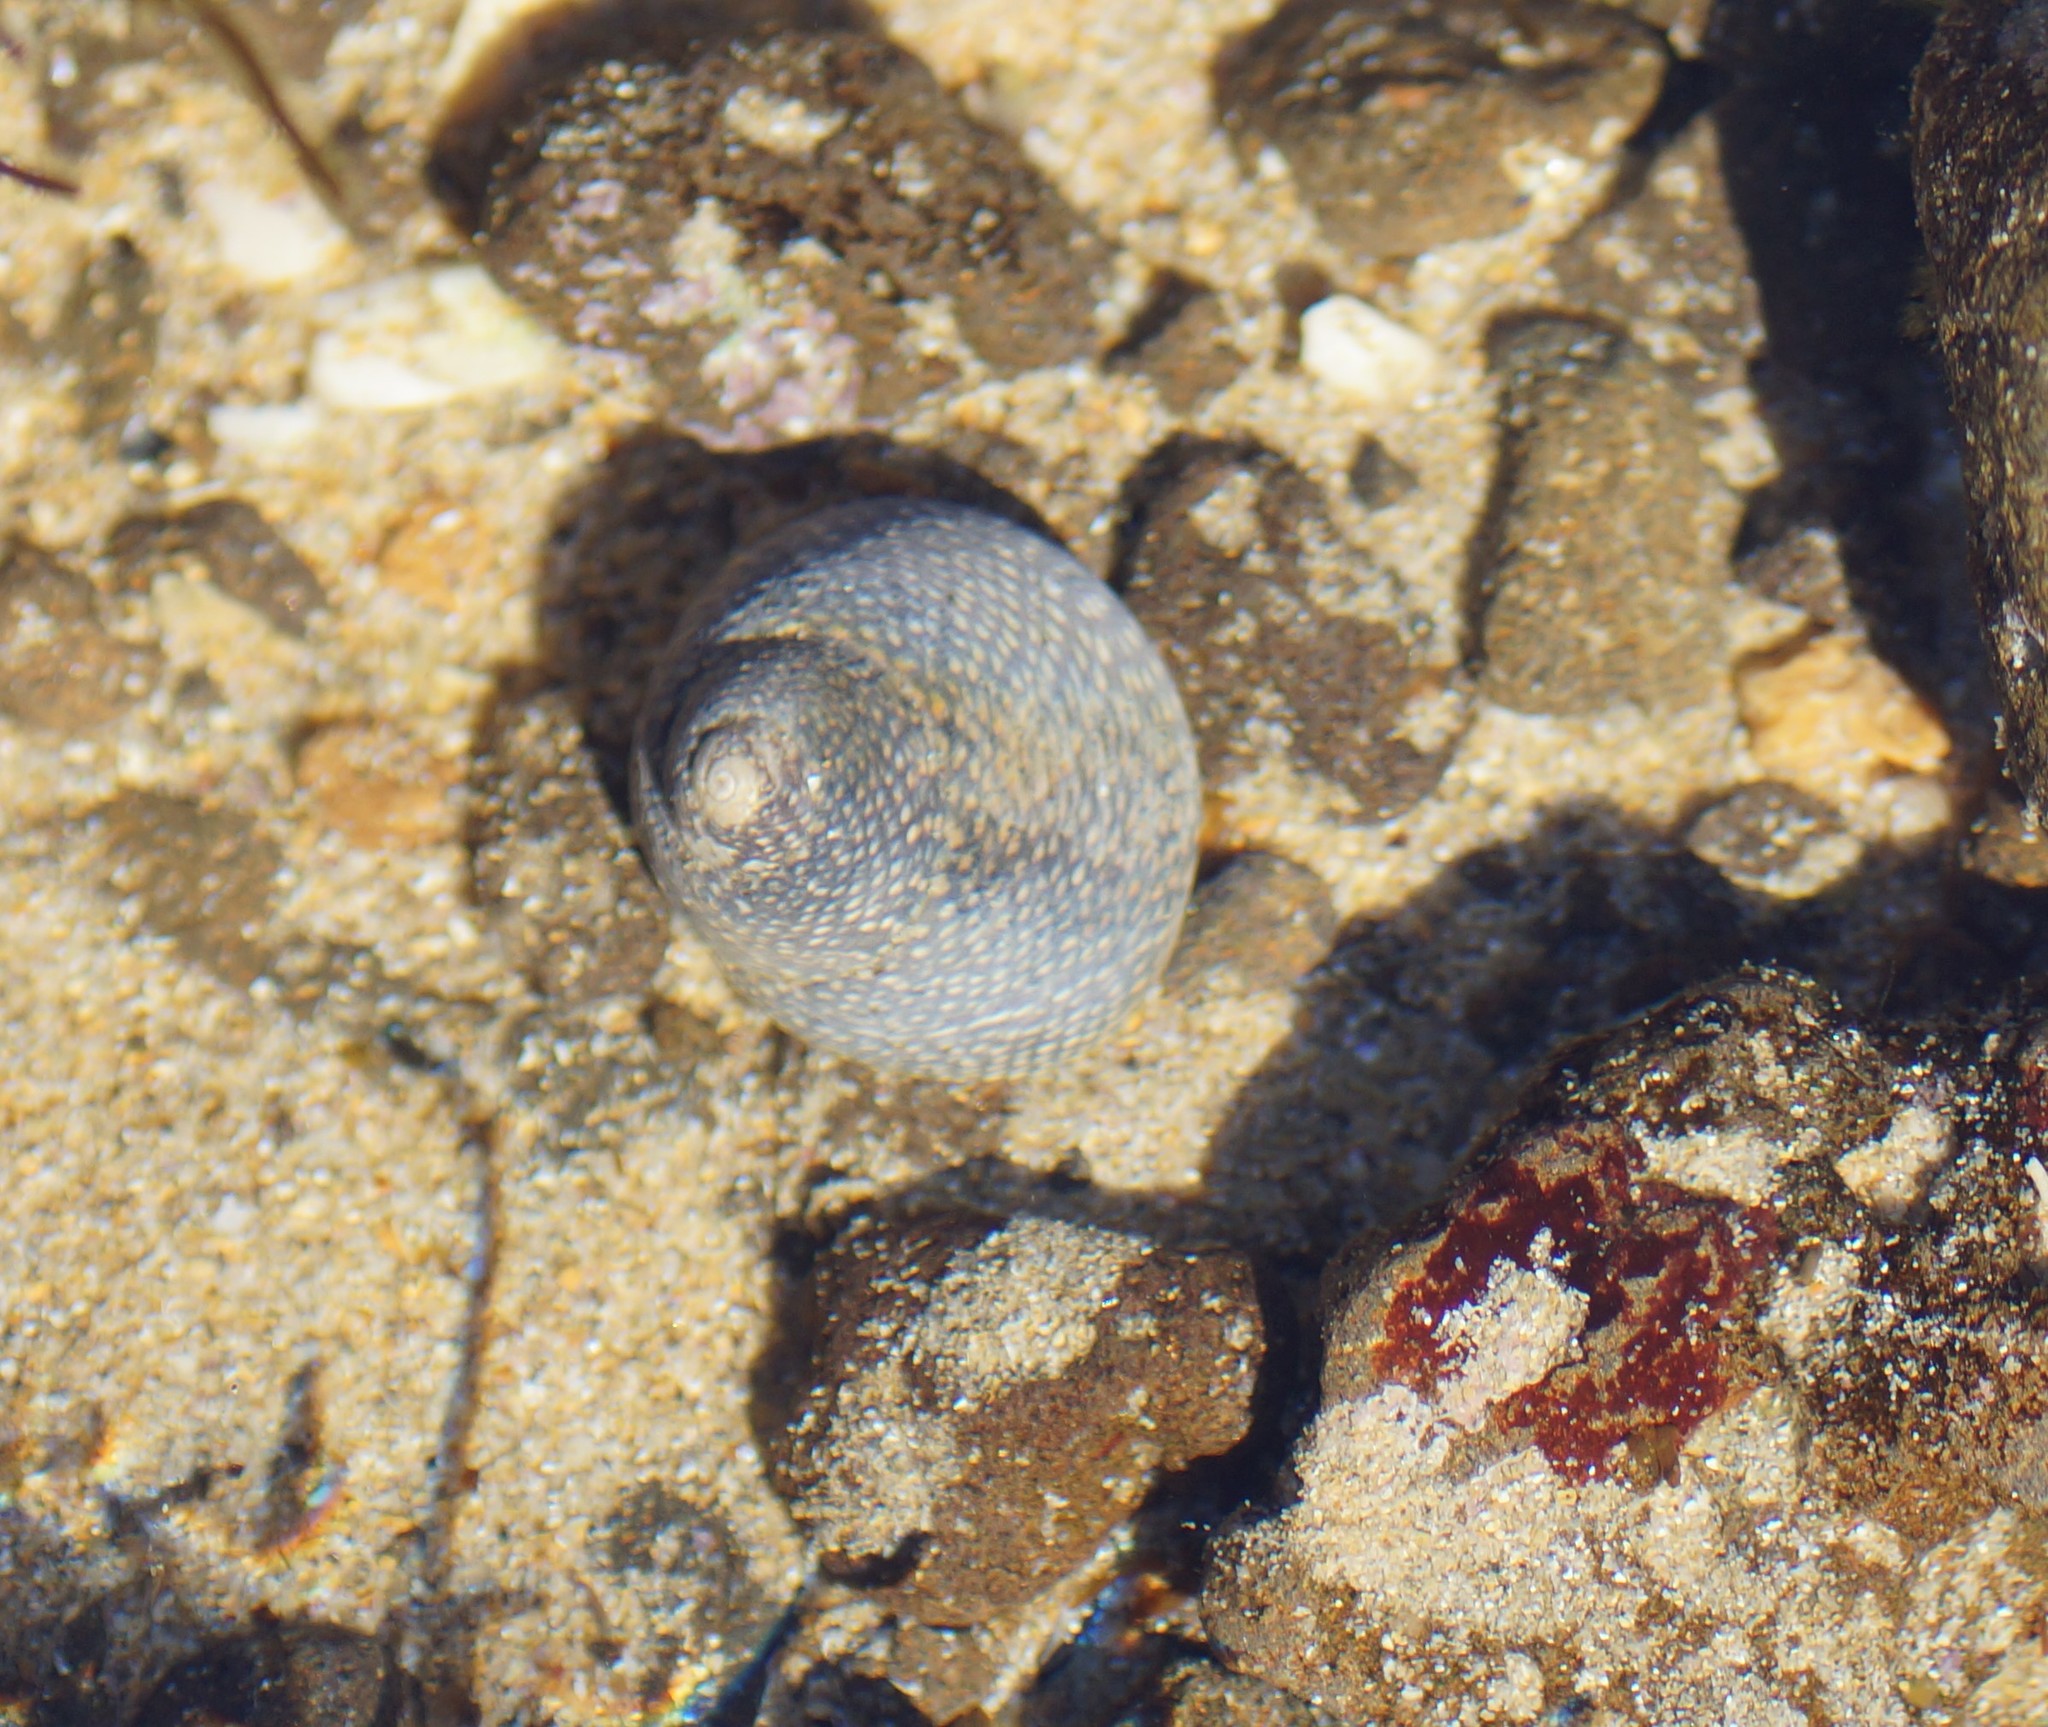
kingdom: Animalia
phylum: Mollusca
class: Gastropoda
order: Trochida
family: Trochidae
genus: Chlorodiloma
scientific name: Chlorodiloma odontis
